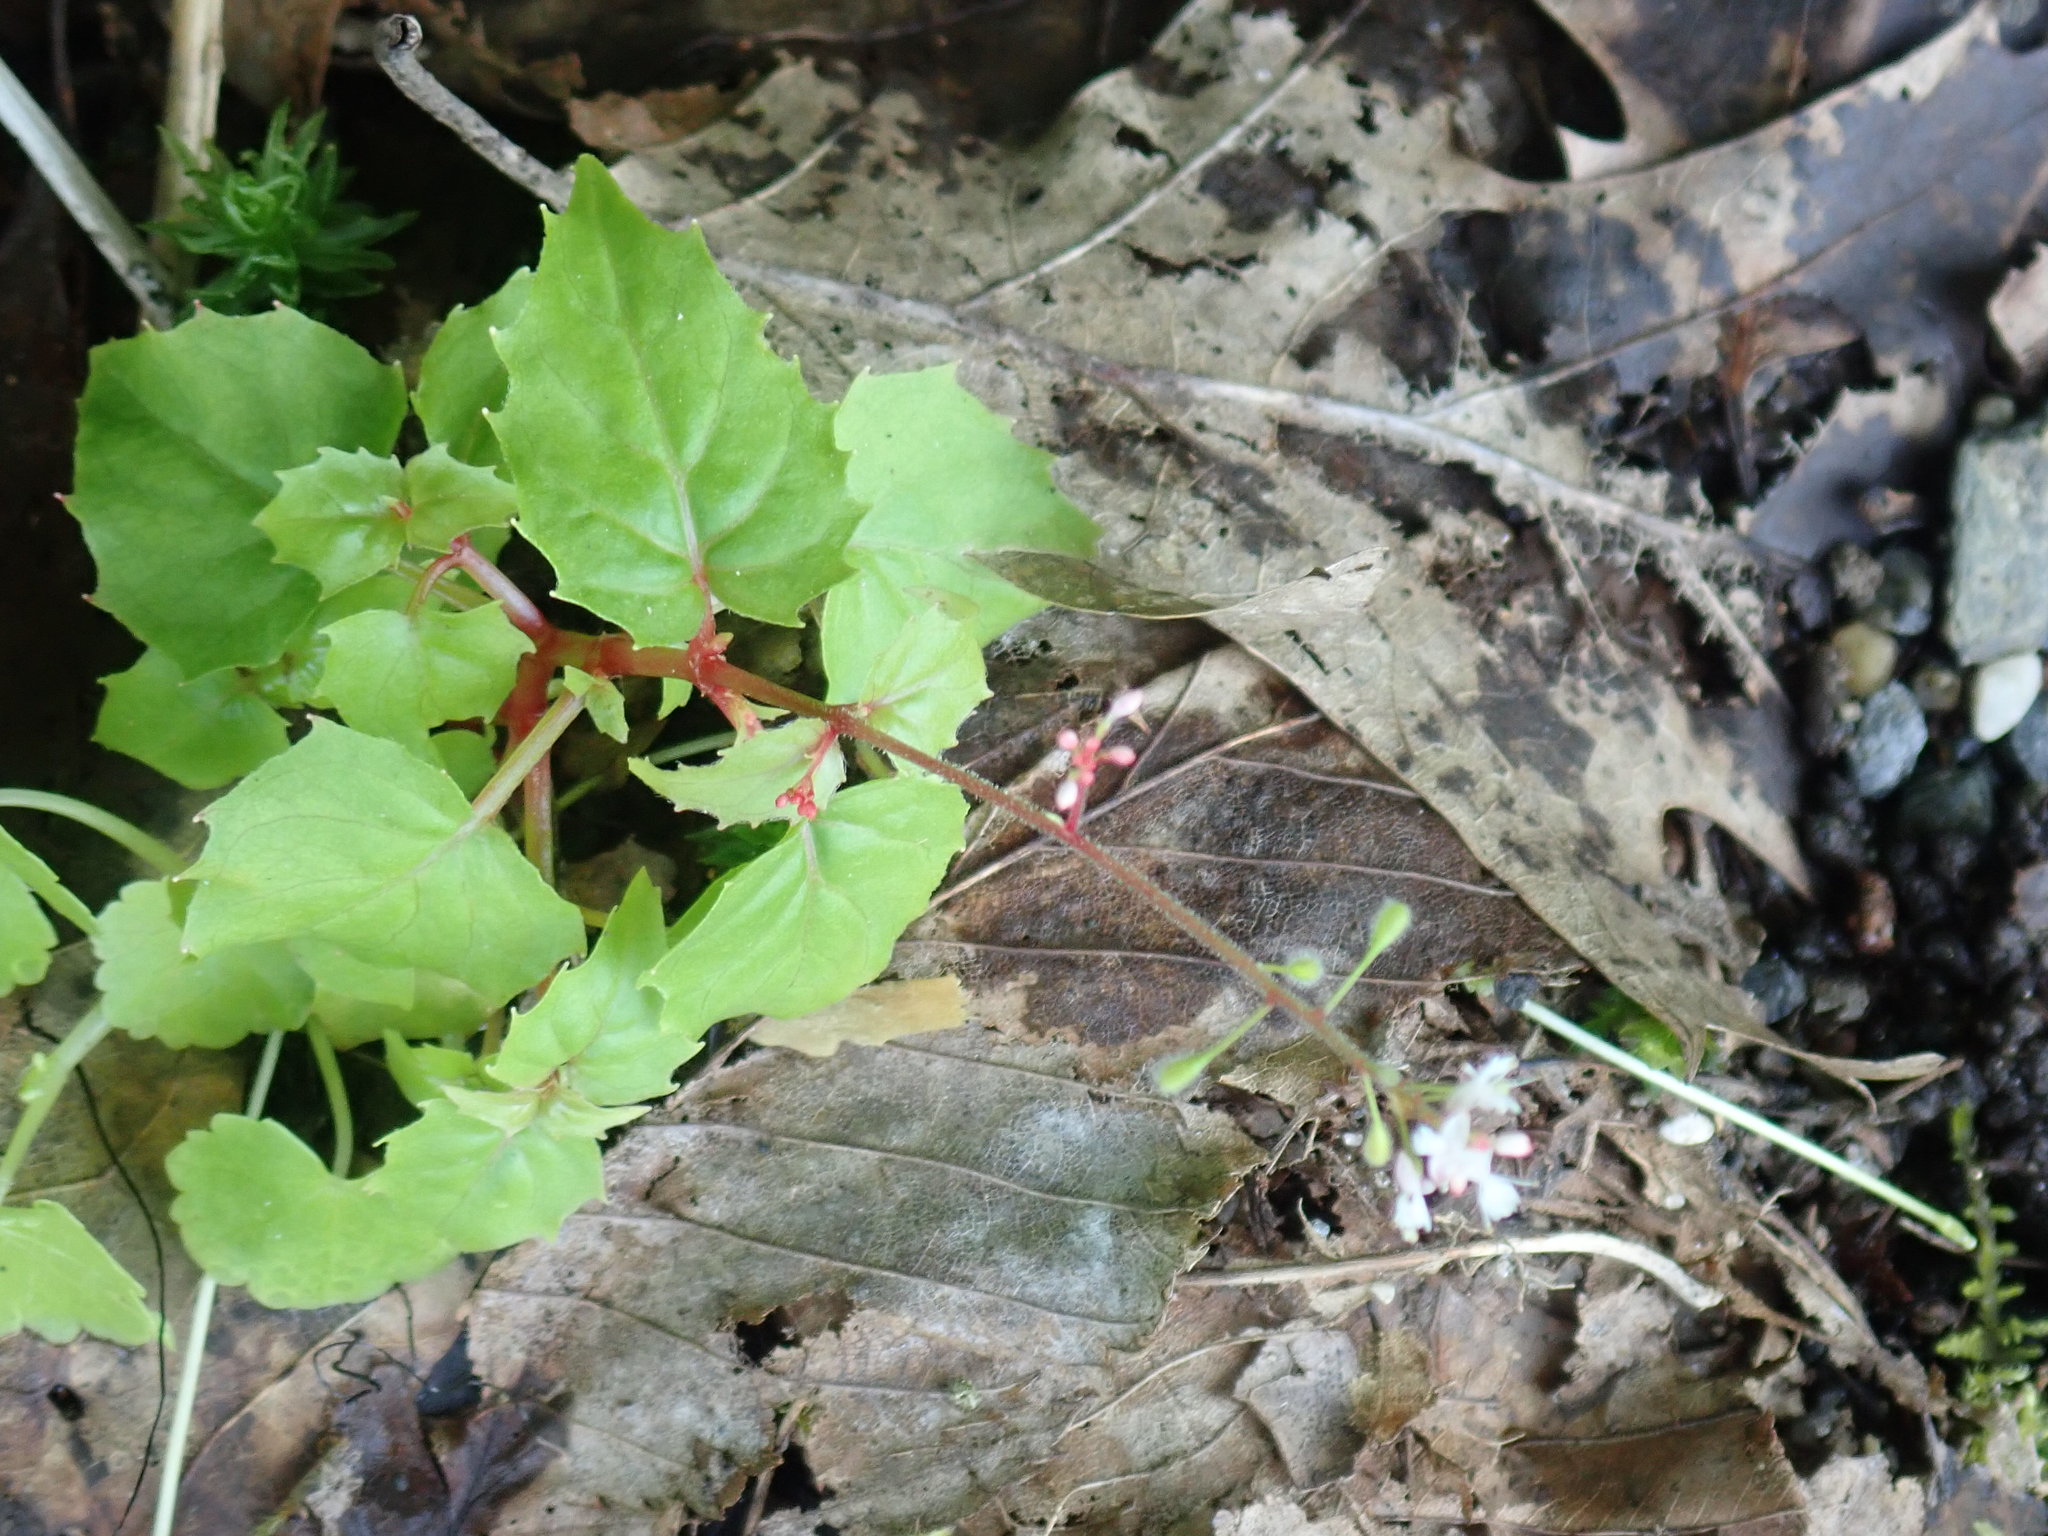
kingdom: Plantae
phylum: Tracheophyta
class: Magnoliopsida
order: Myrtales
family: Onagraceae
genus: Circaea
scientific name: Circaea alpina
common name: Alpine enchanter's-nightshade
